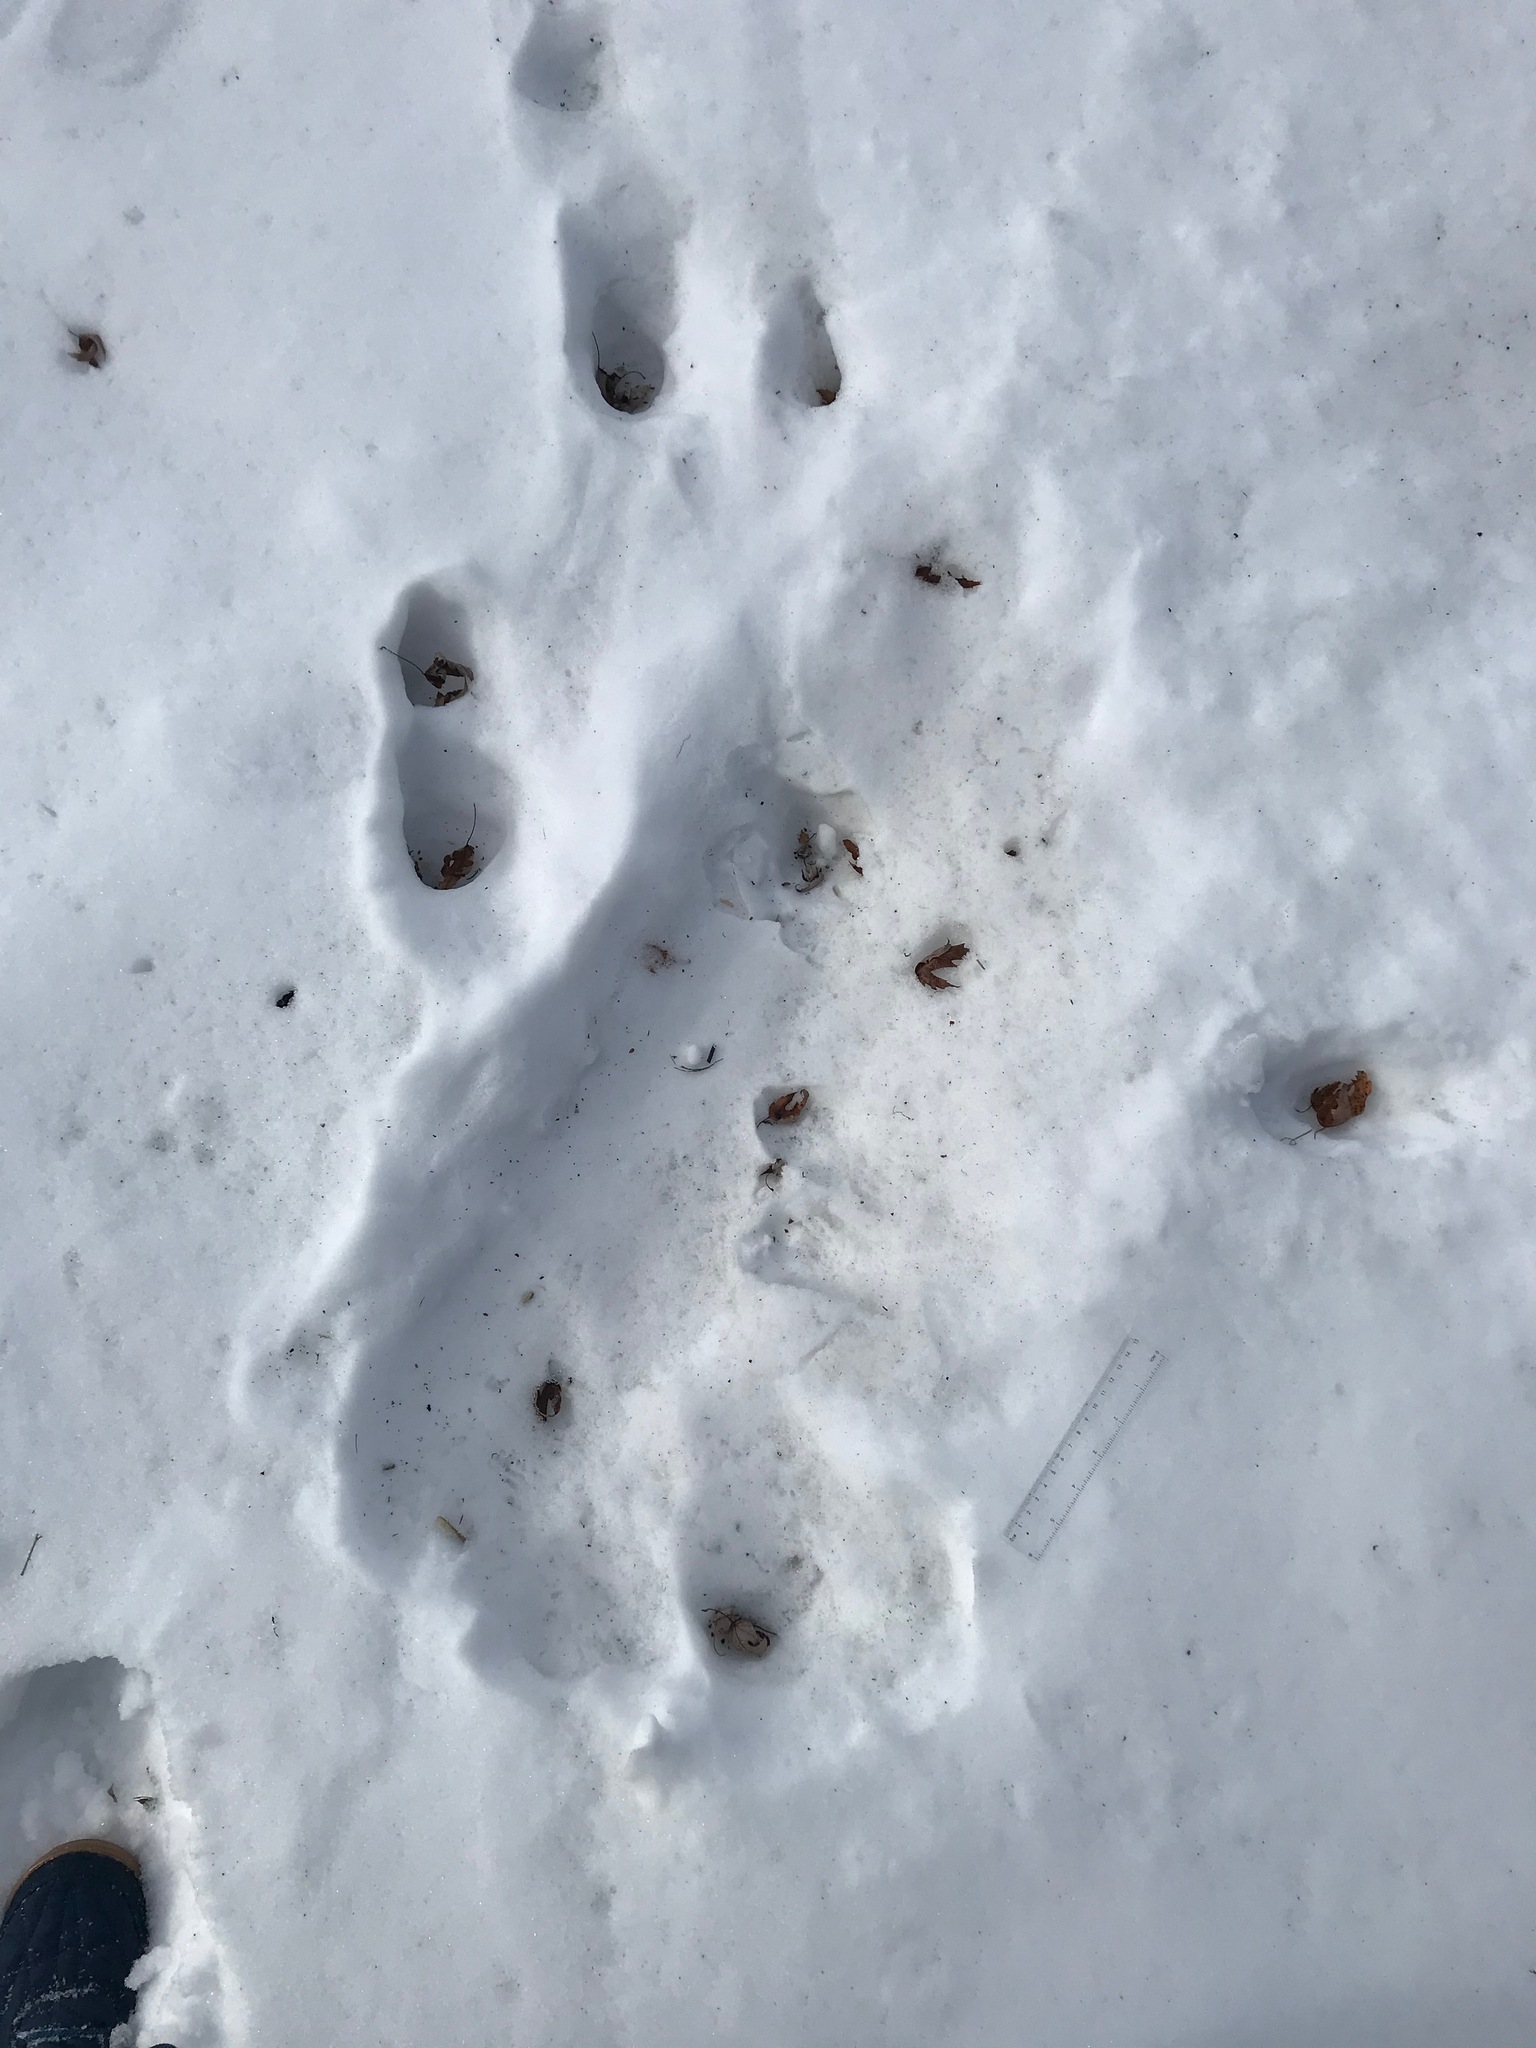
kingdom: Animalia
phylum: Chordata
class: Mammalia
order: Carnivora
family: Canidae
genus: Canis
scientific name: Canis latrans
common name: Coyote
